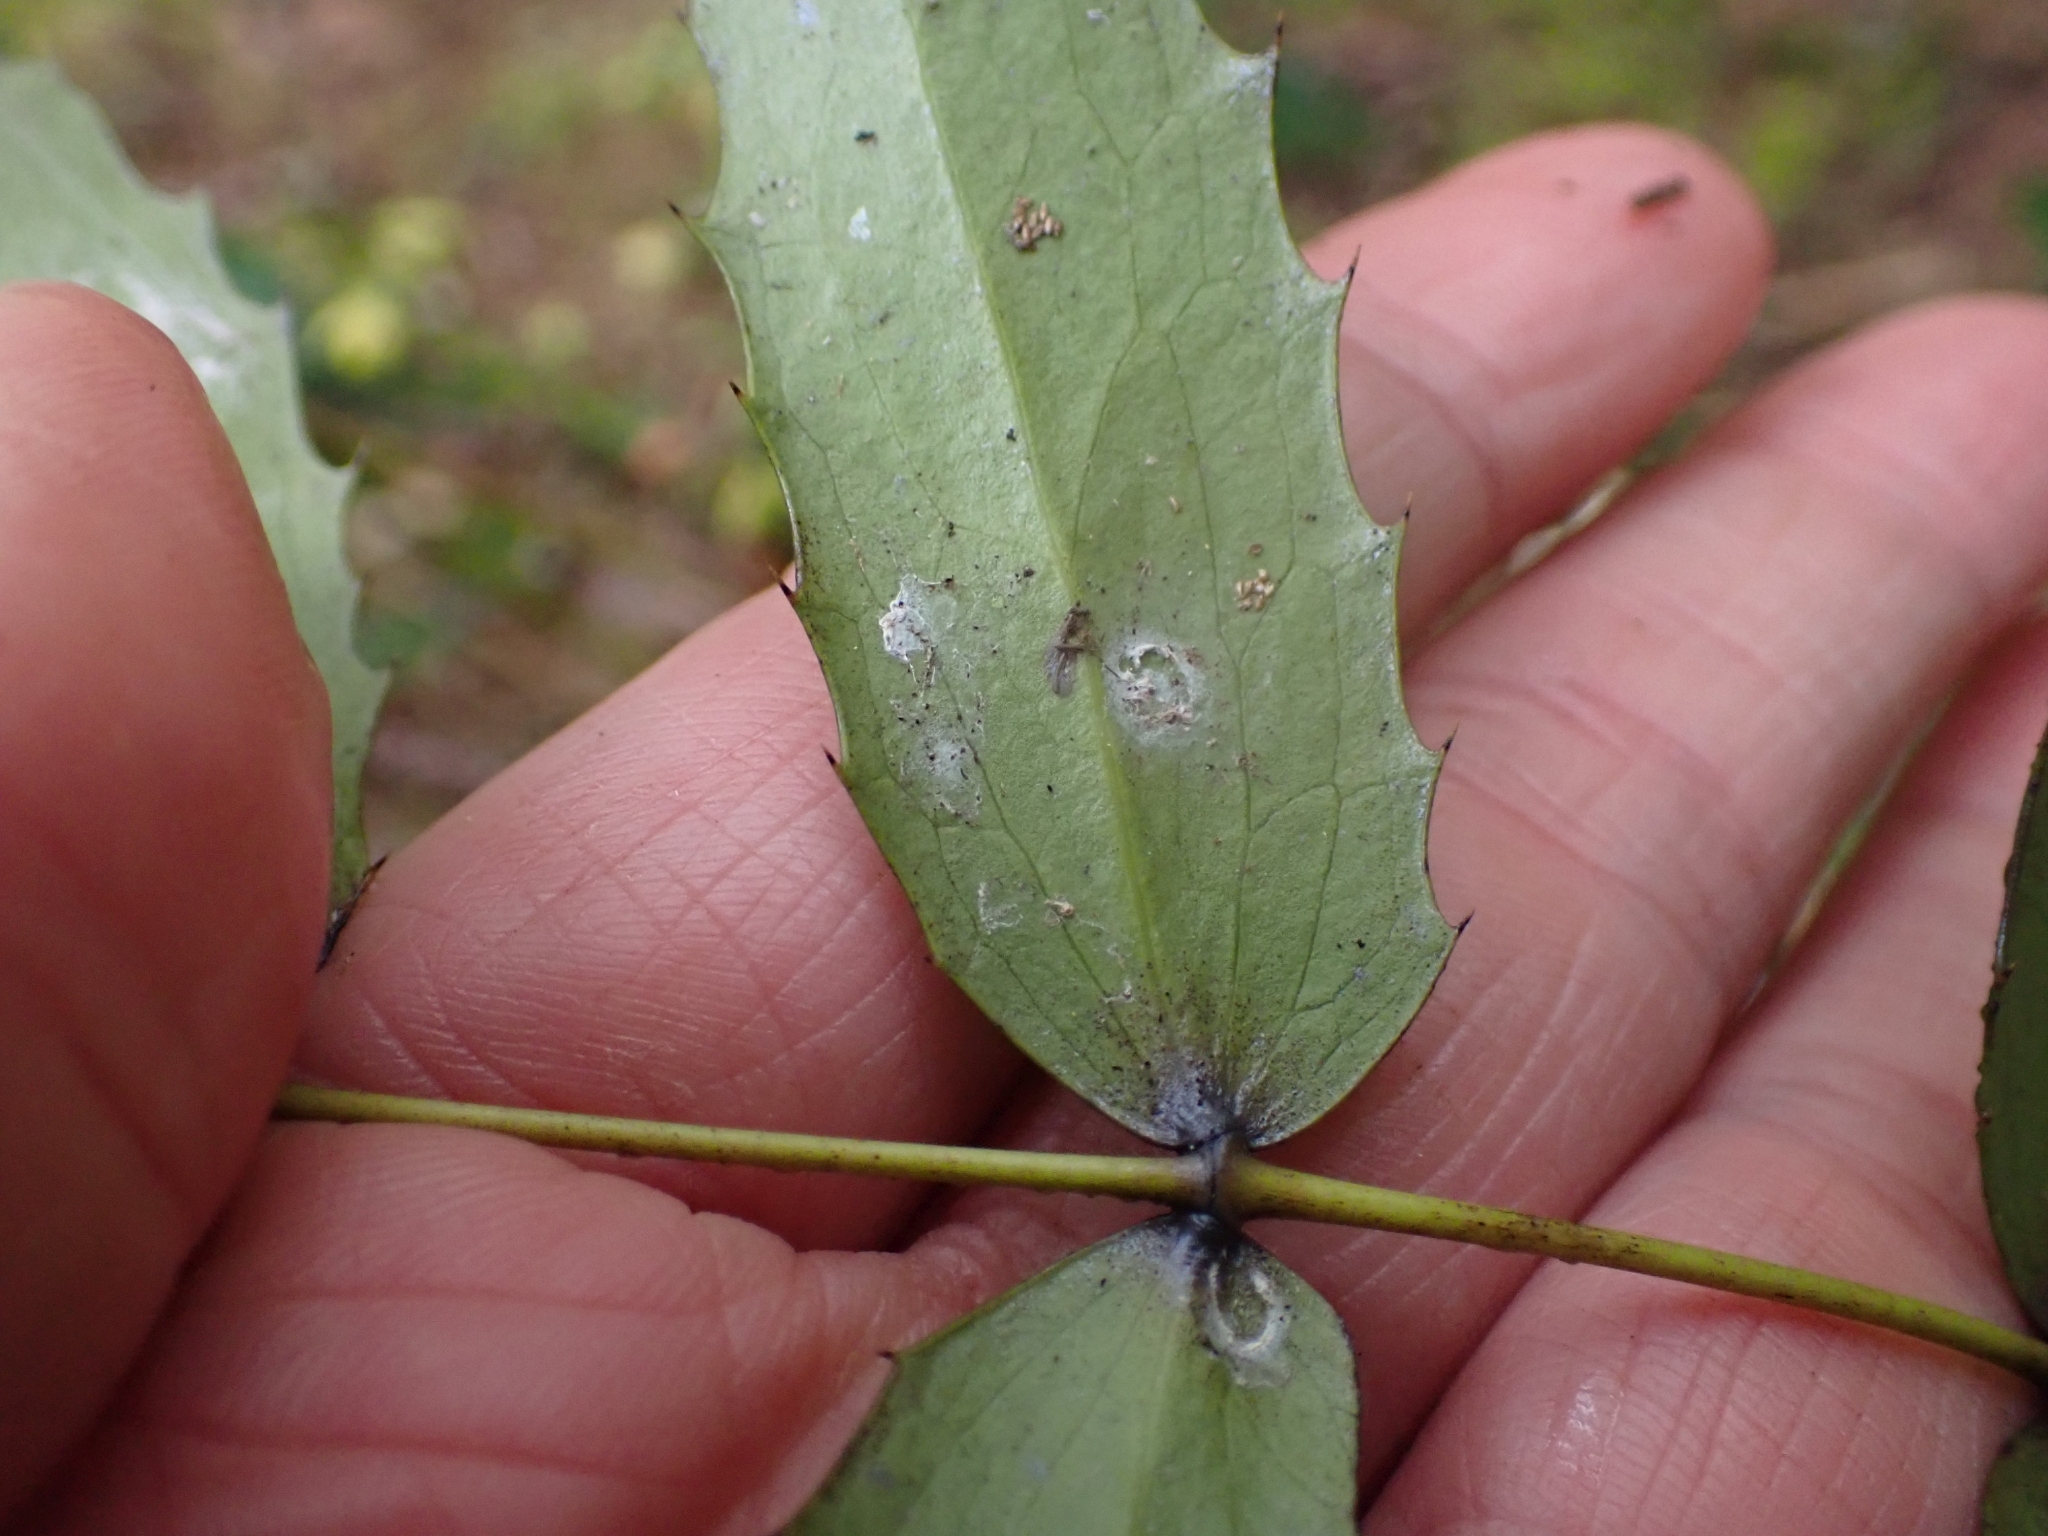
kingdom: Plantae
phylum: Tracheophyta
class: Magnoliopsida
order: Ranunculales
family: Berberidaceae
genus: Mahonia
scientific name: Mahonia nervosa
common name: Cascade oregon-grape
